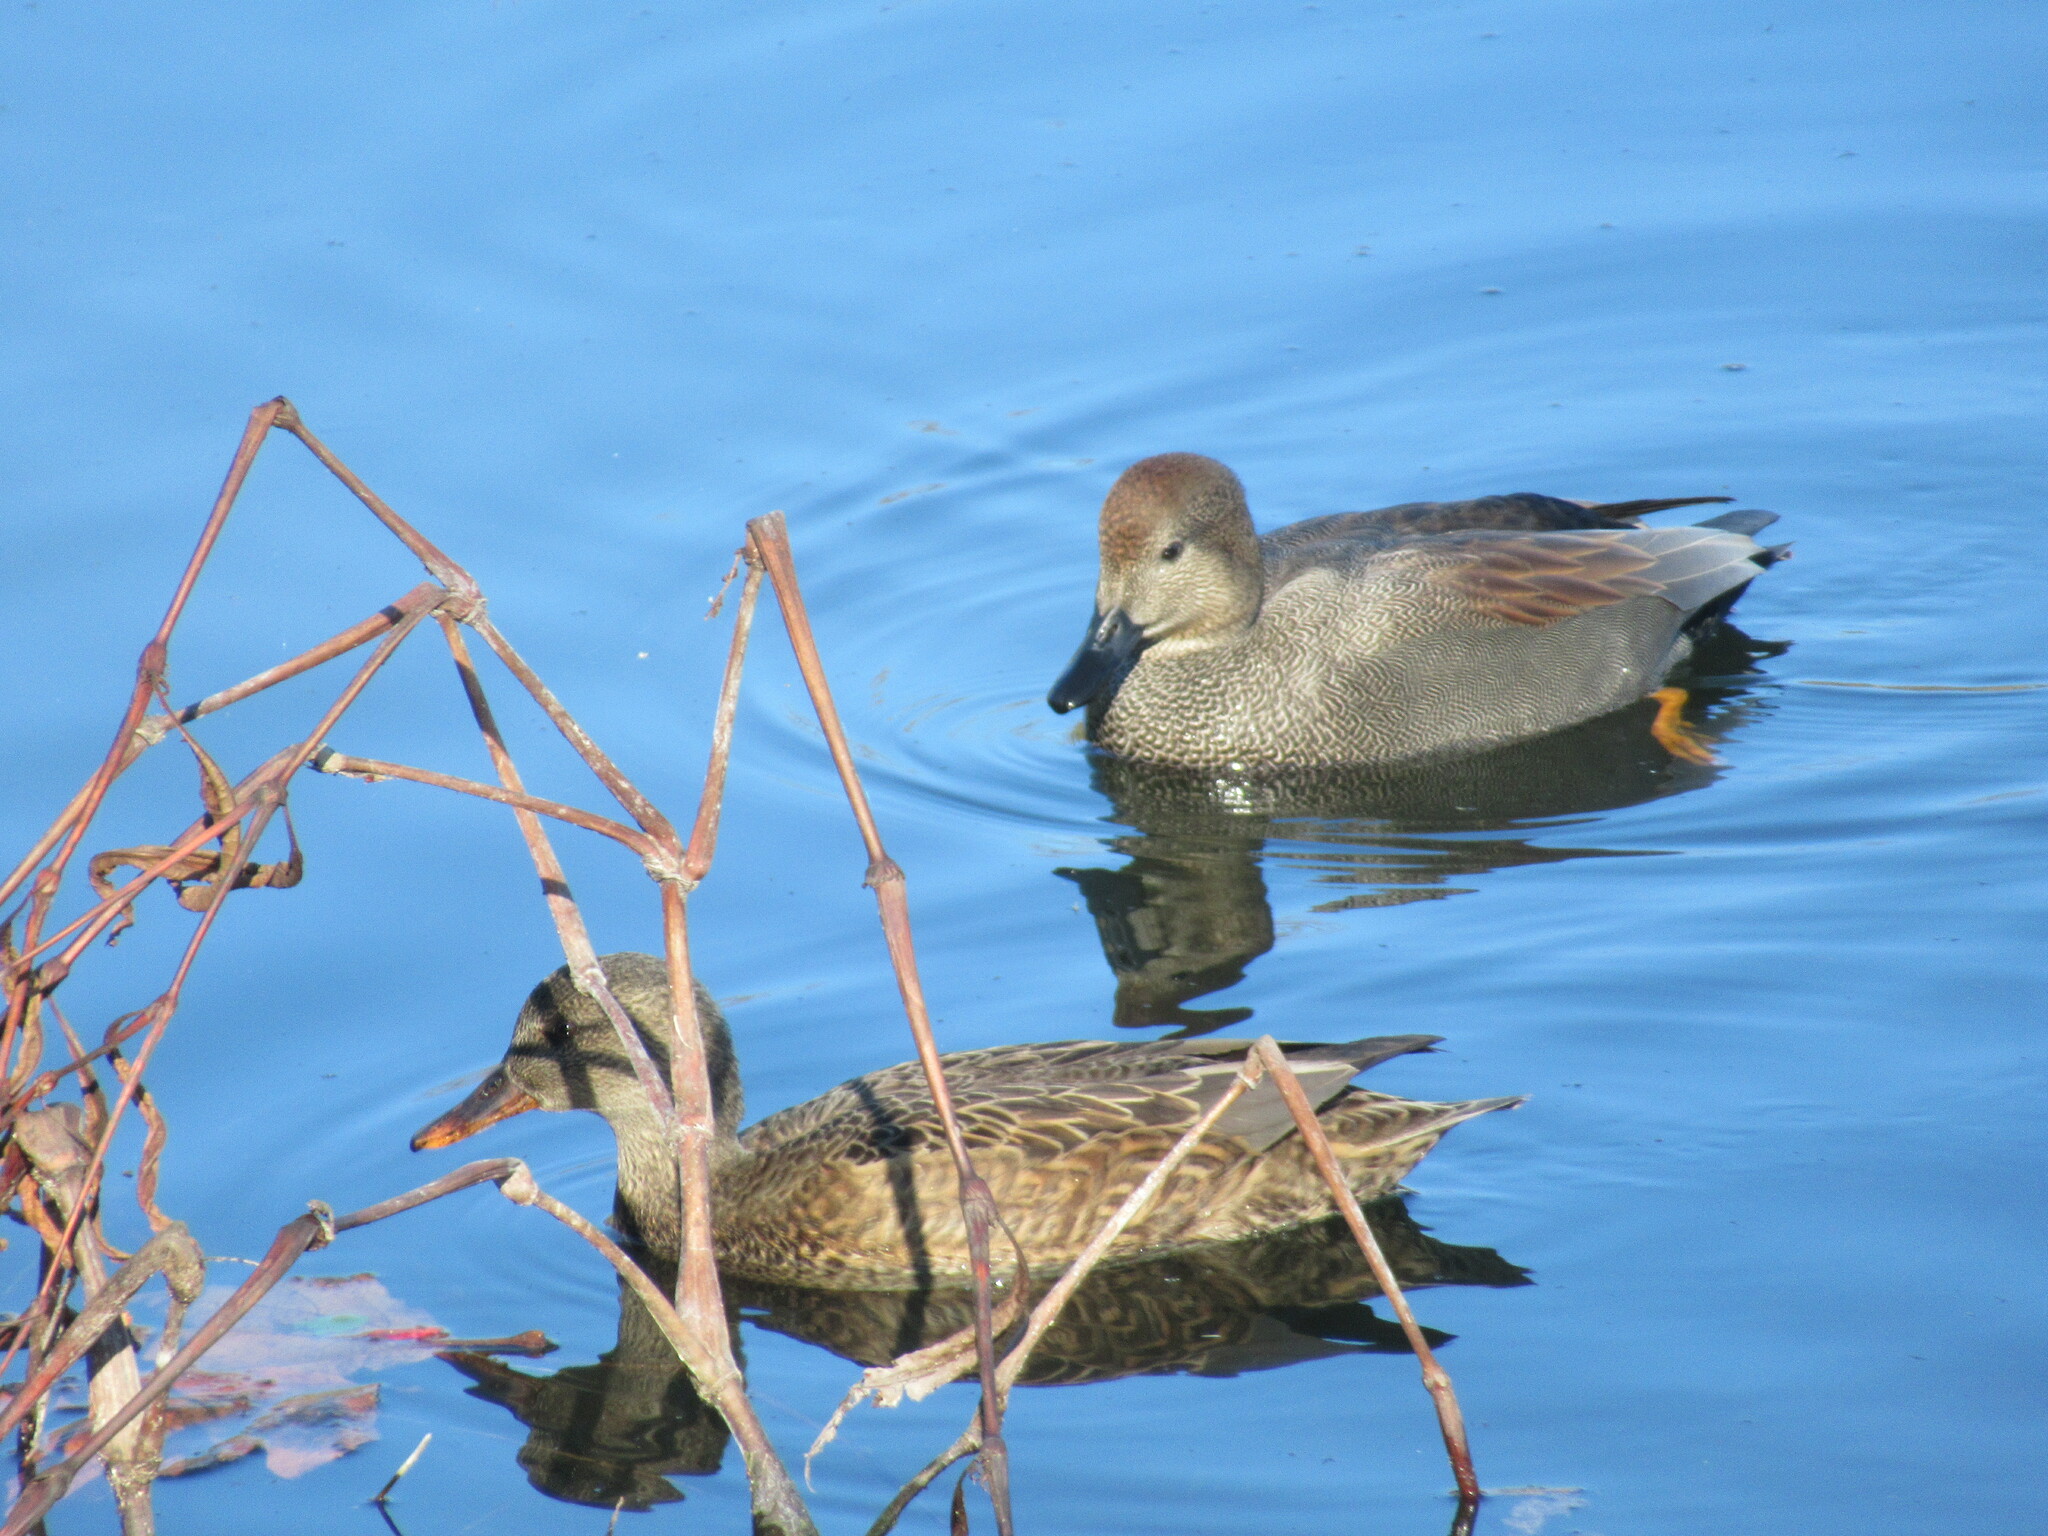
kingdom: Animalia
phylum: Chordata
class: Aves
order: Anseriformes
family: Anatidae
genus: Mareca
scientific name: Mareca strepera
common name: Gadwall
